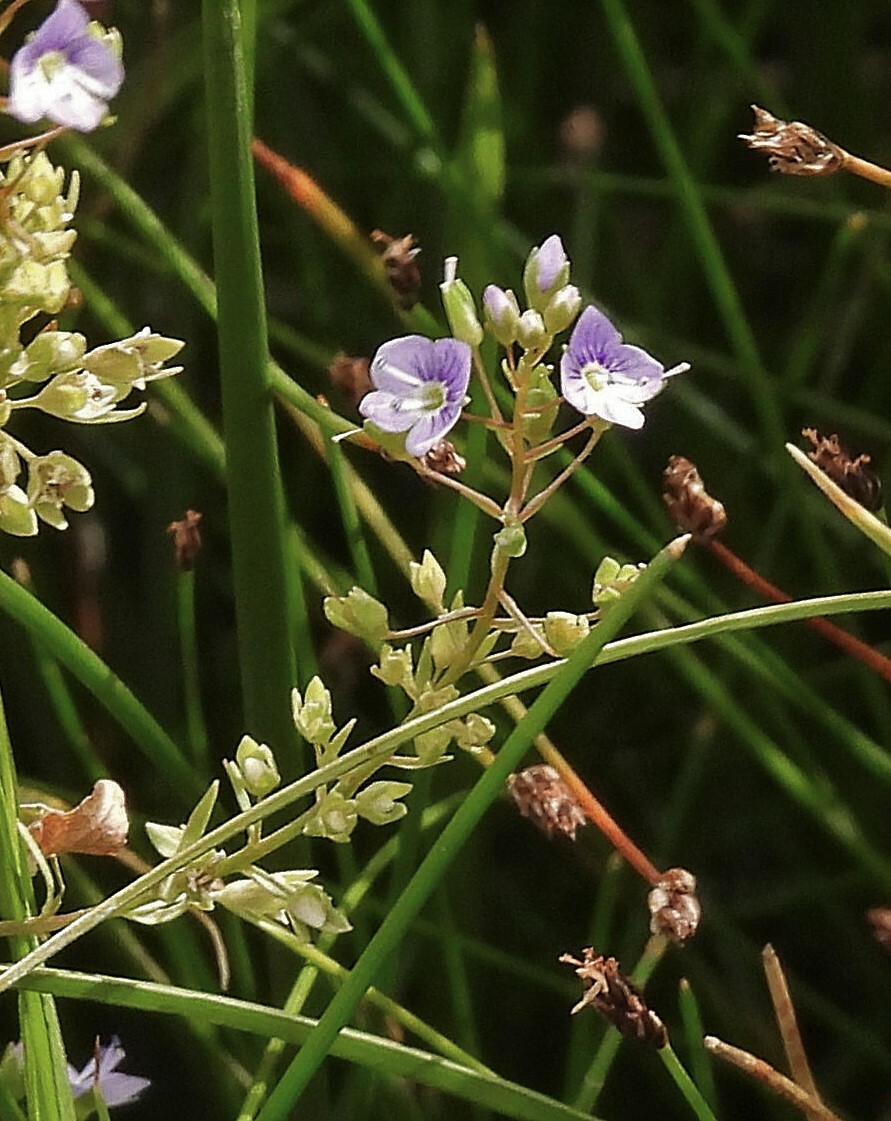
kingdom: Plantae
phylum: Tracheophyta
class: Magnoliopsida
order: Lamiales
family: Plantaginaceae
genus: Veronica
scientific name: Veronica anagallis-aquatica
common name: Water speedwell
